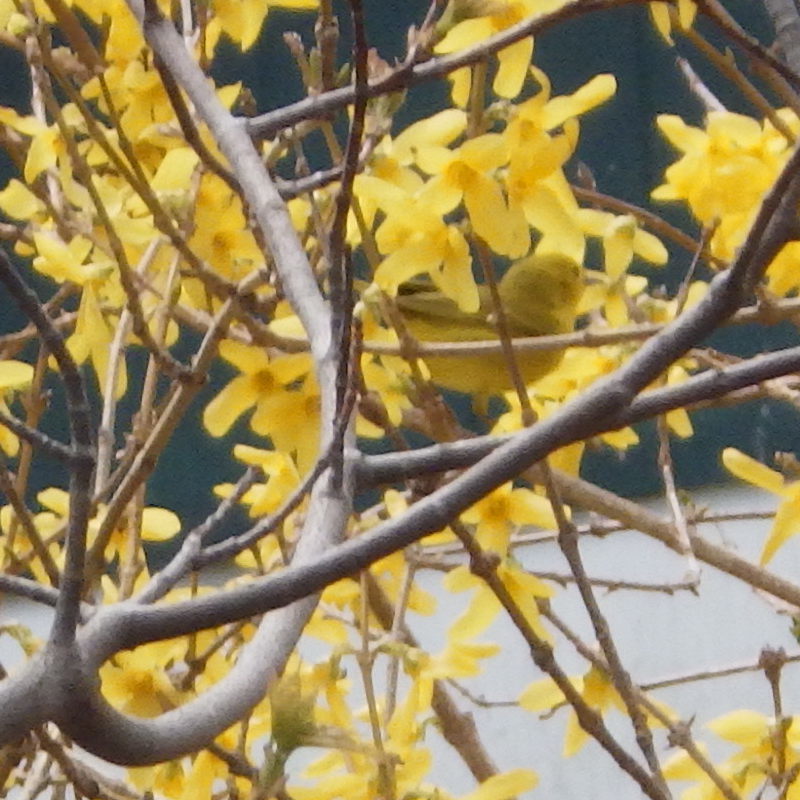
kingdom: Animalia
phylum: Chordata
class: Aves
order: Passeriformes
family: Parulidae
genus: Setophaga
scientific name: Setophaga petechia
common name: Yellow warbler
